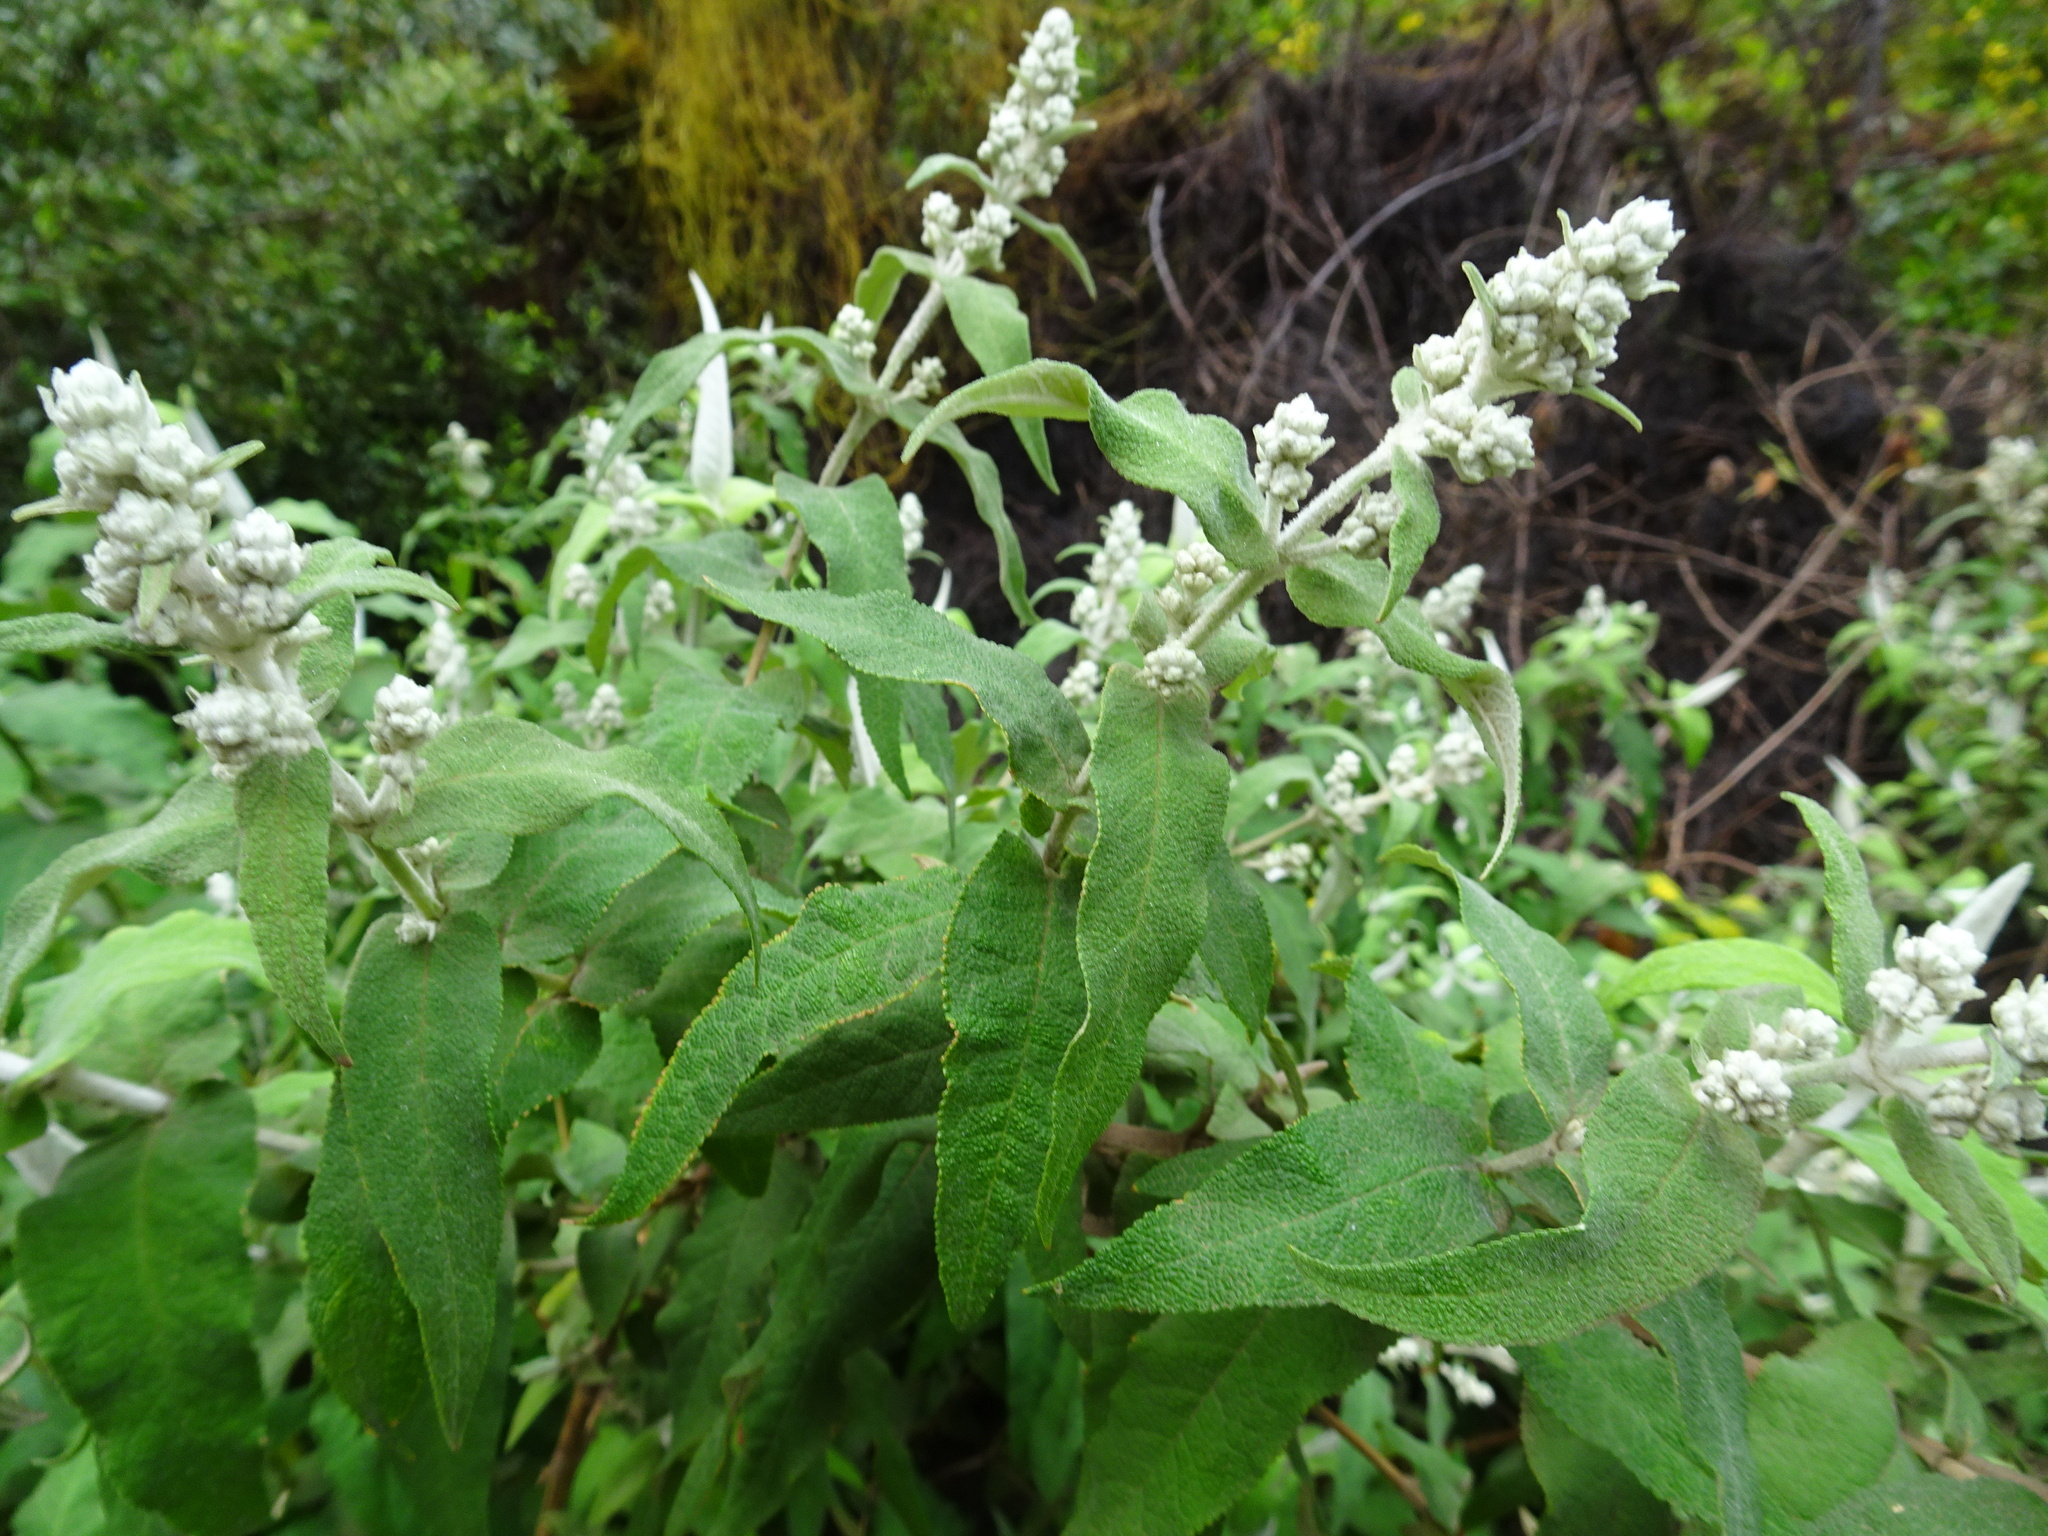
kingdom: Plantae
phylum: Tracheophyta
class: Magnoliopsida
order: Lamiales
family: Scrophulariaceae
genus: Buddleja
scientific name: Buddleja salviifolia
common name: Sagewood
